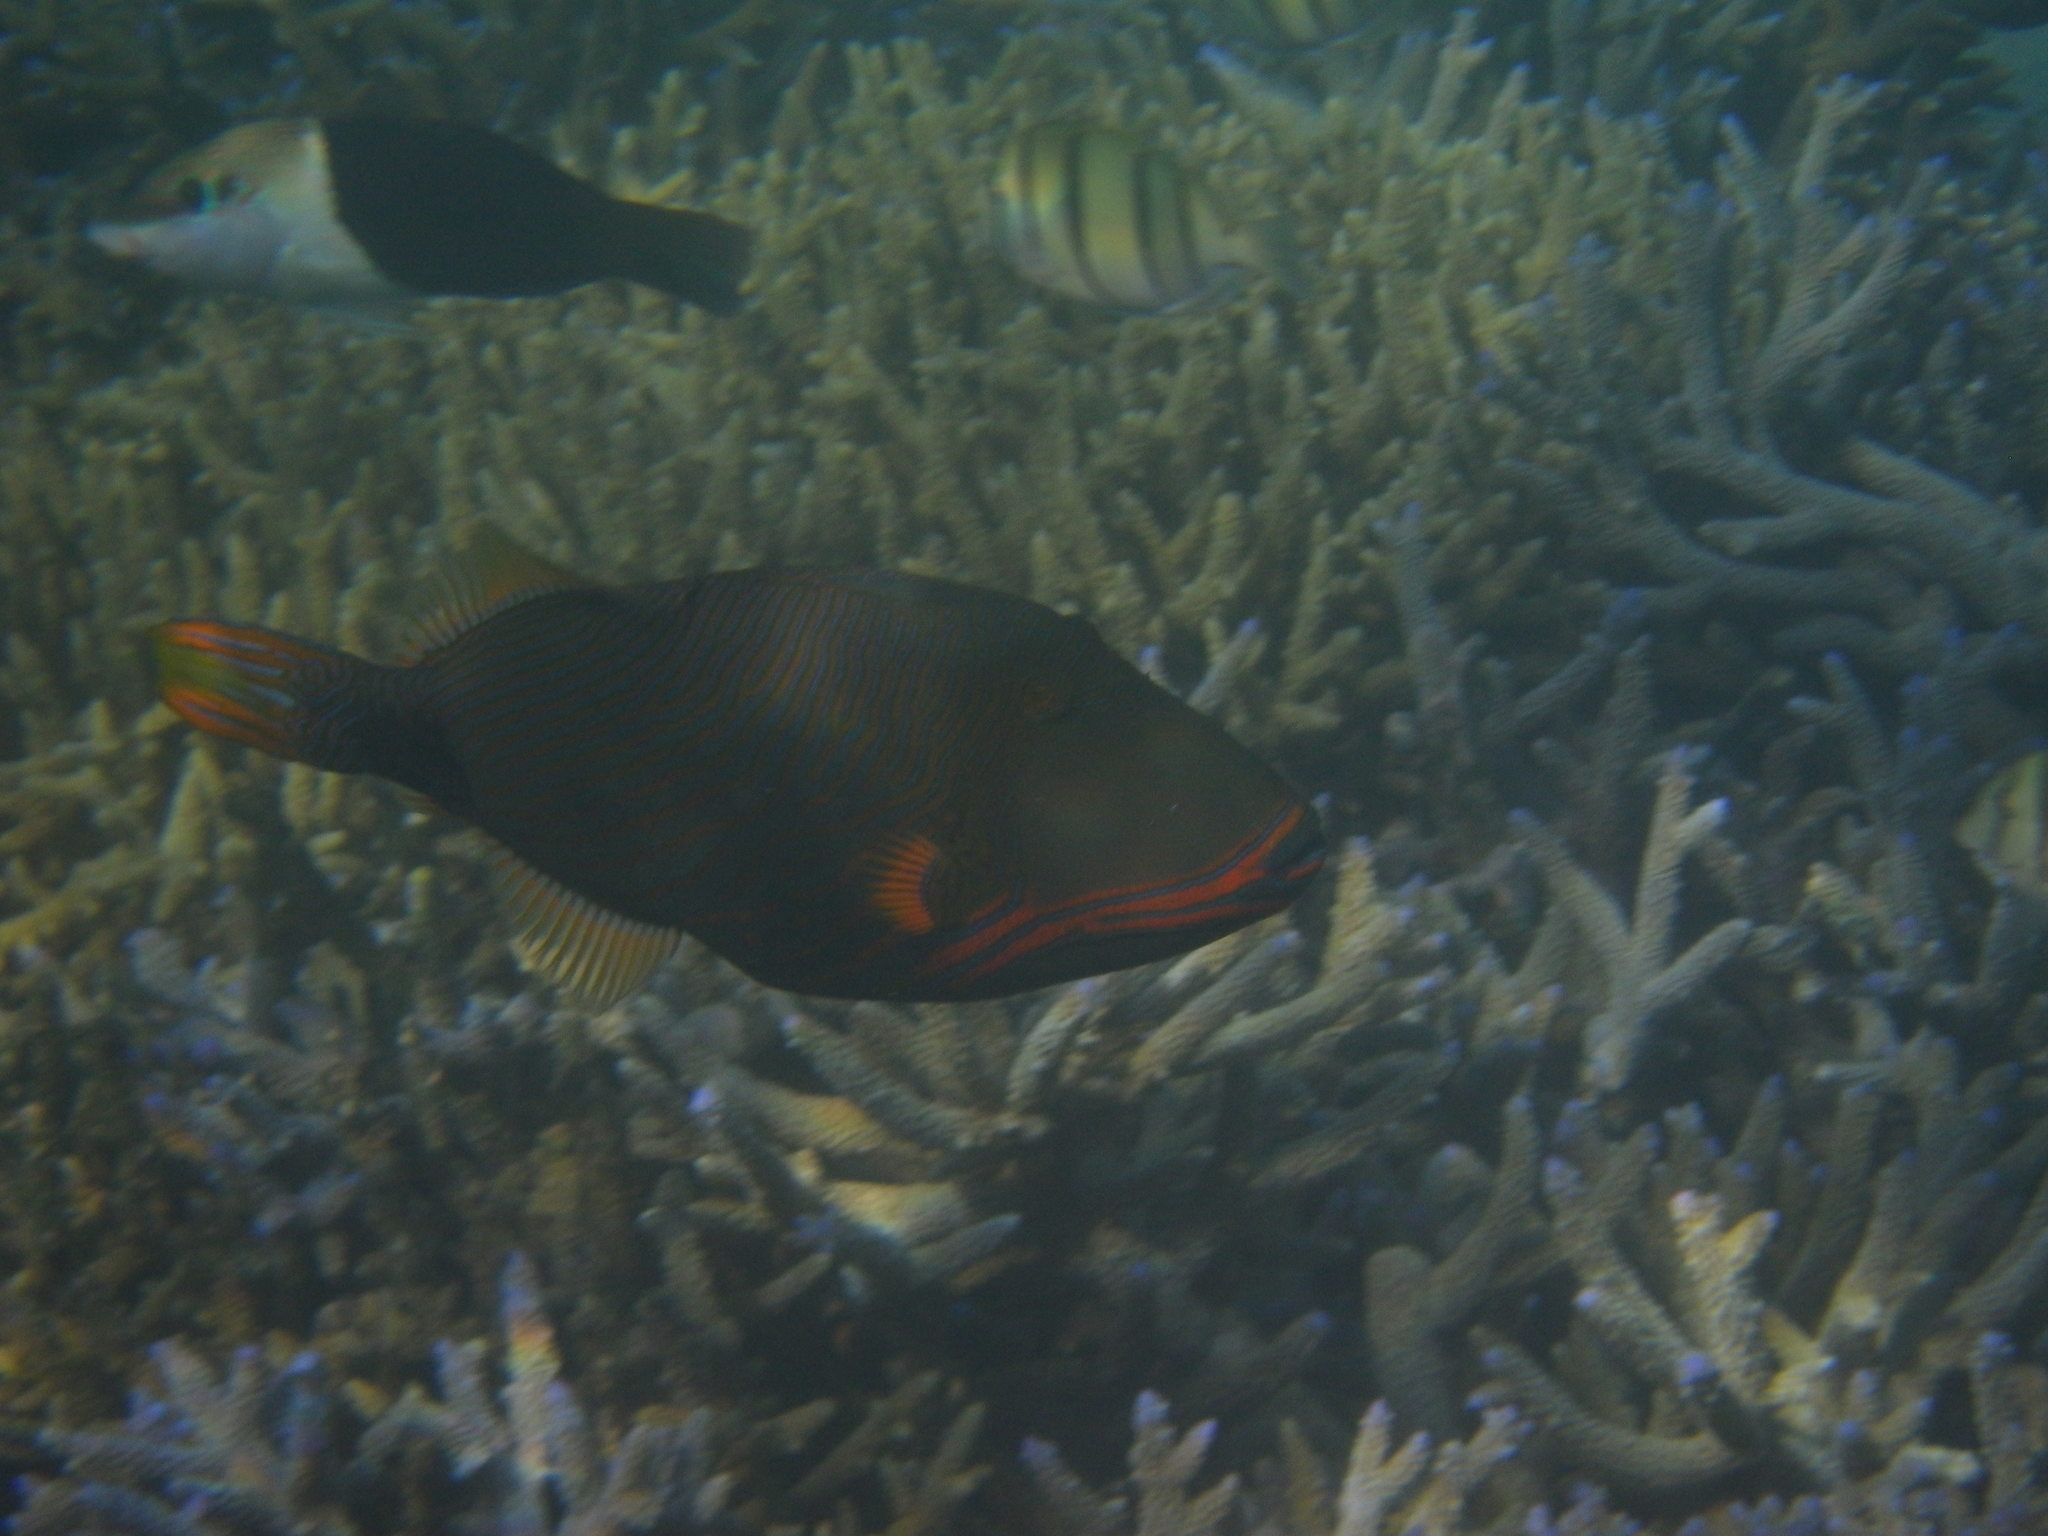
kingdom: Animalia
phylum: Chordata
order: Tetraodontiformes
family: Balistidae
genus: Balistapus
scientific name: Balistapus undulatus
